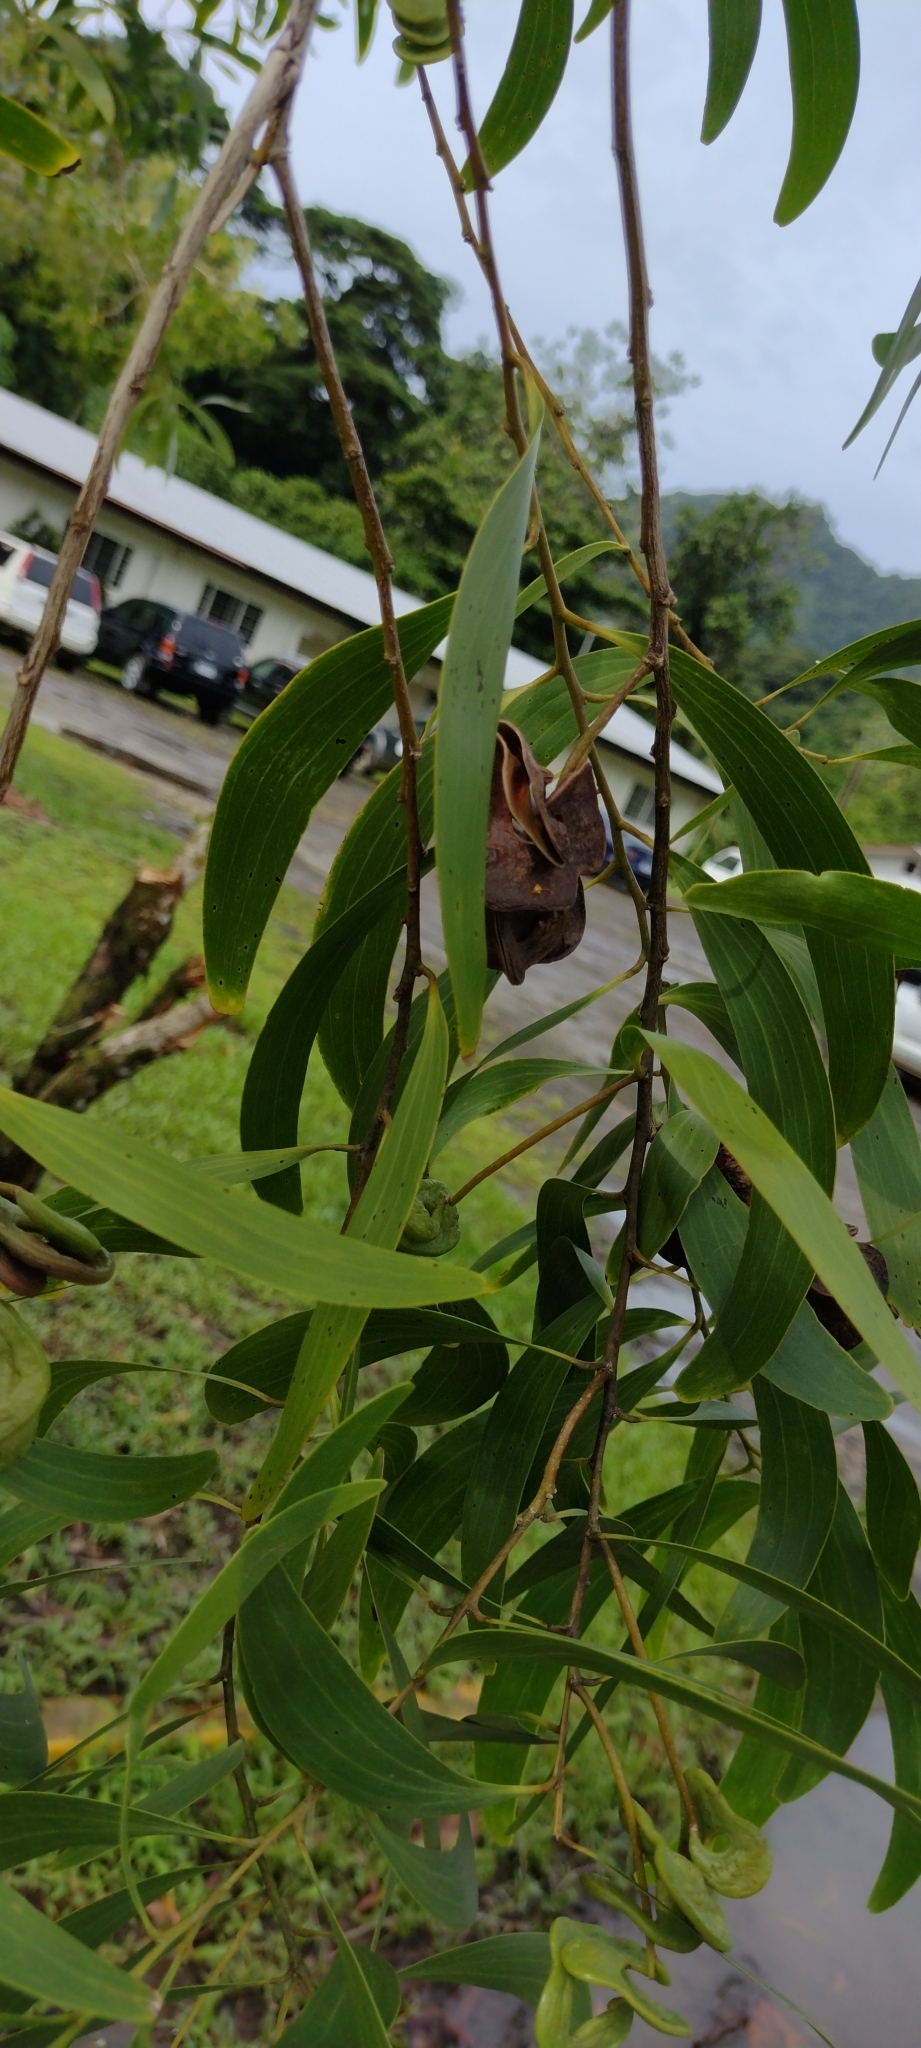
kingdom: Plantae
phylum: Tracheophyta
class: Magnoliopsida
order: Fabales
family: Fabaceae
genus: Acacia
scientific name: Acacia auriculiformis
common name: Earleaf acacia
